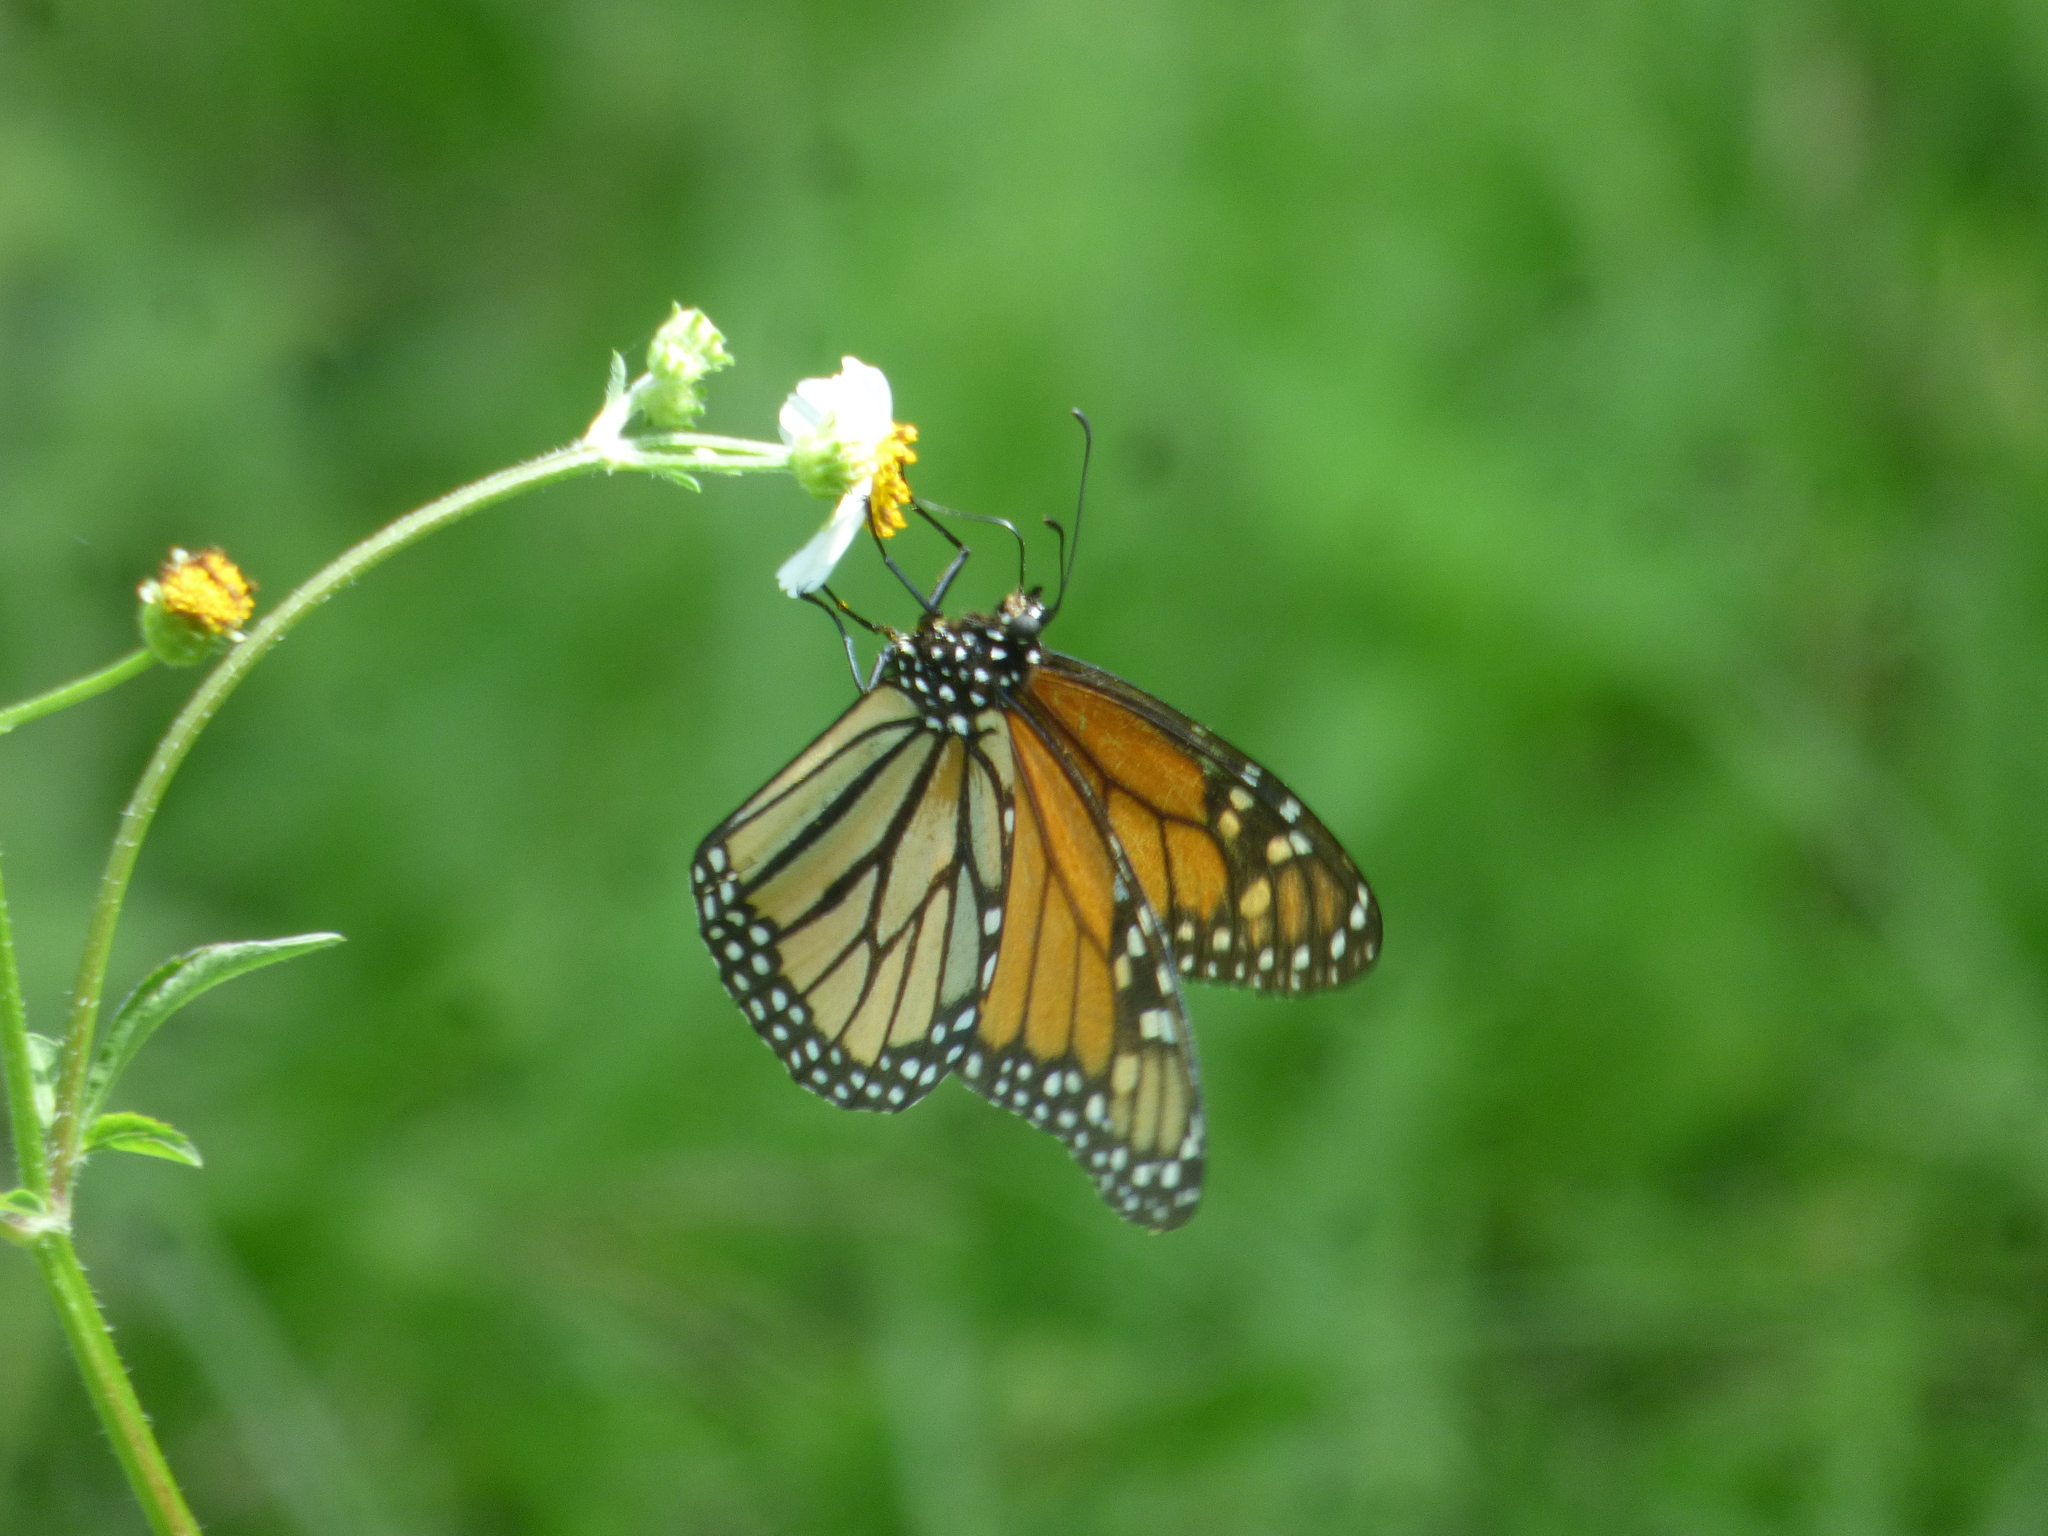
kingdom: Animalia
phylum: Arthropoda
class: Insecta
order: Lepidoptera
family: Nymphalidae
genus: Danaus
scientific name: Danaus plexippus
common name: Monarch
